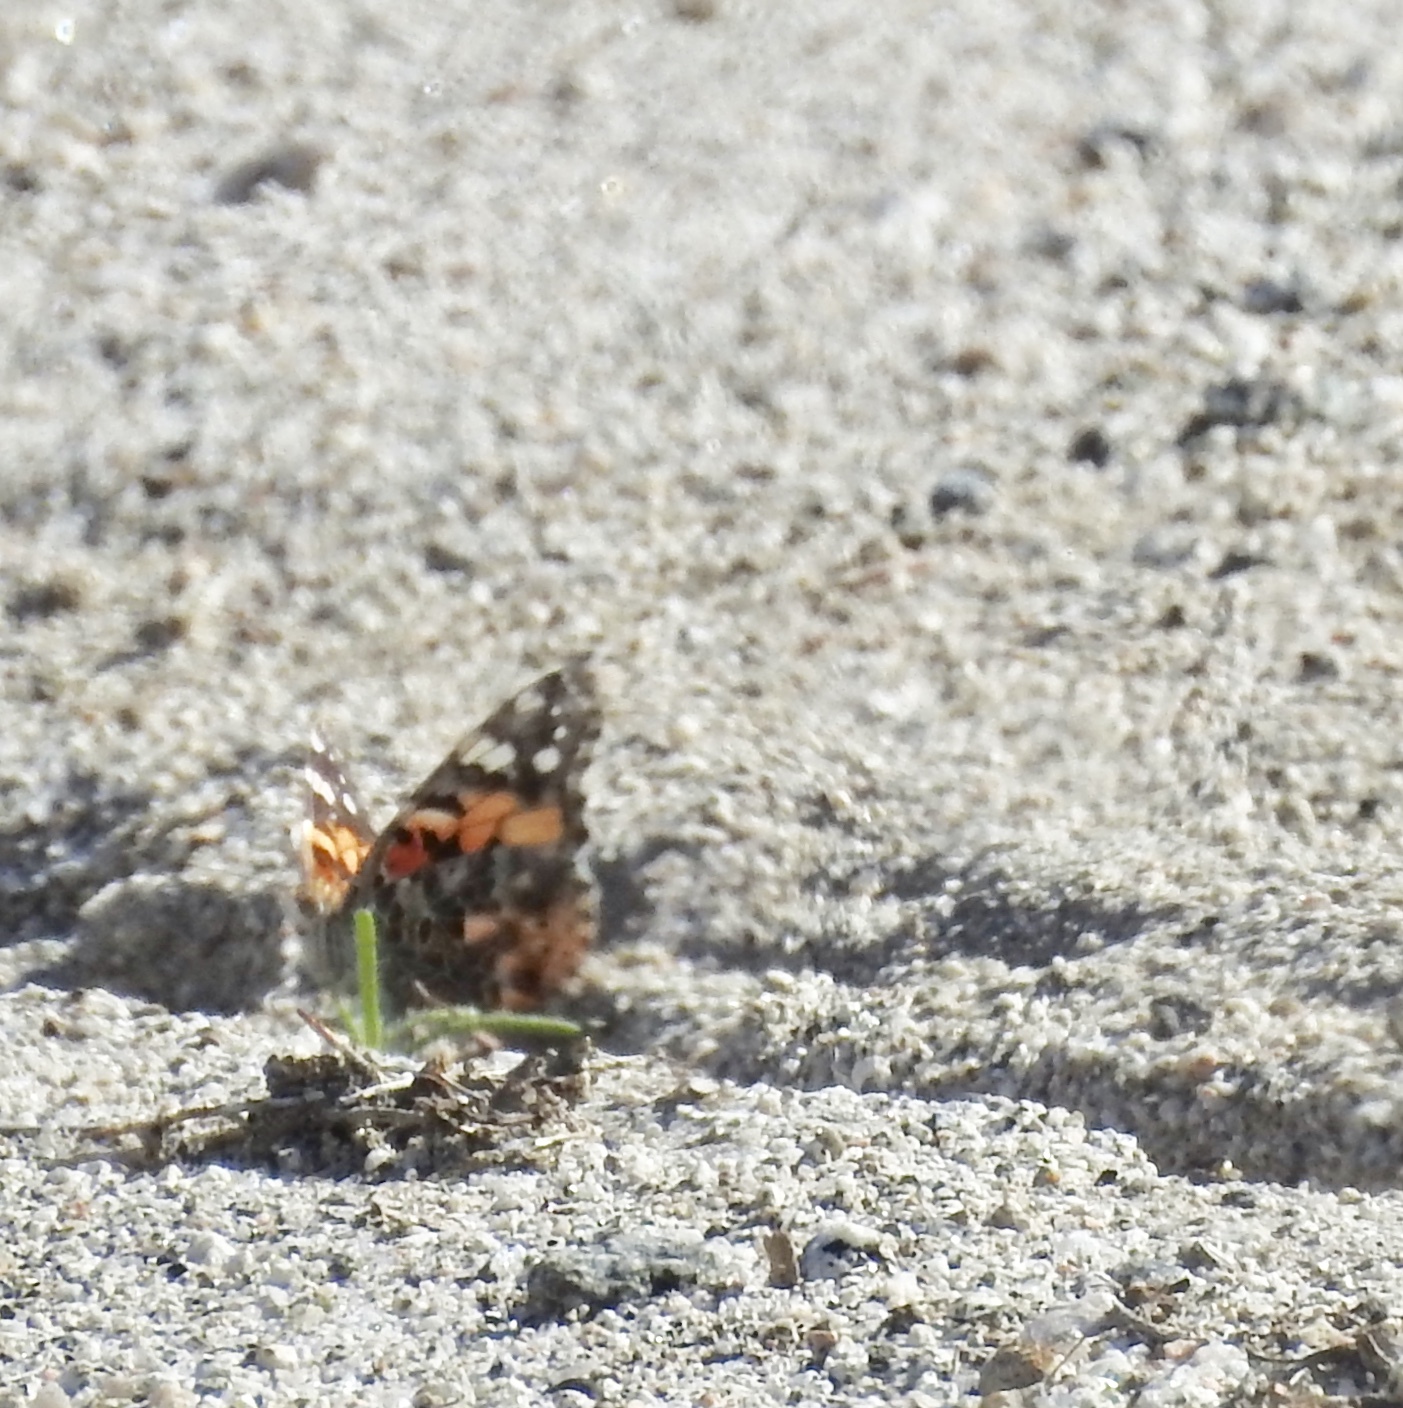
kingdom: Animalia
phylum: Arthropoda
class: Insecta
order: Lepidoptera
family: Nymphalidae
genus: Vanessa
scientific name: Vanessa cardui
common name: Painted lady
